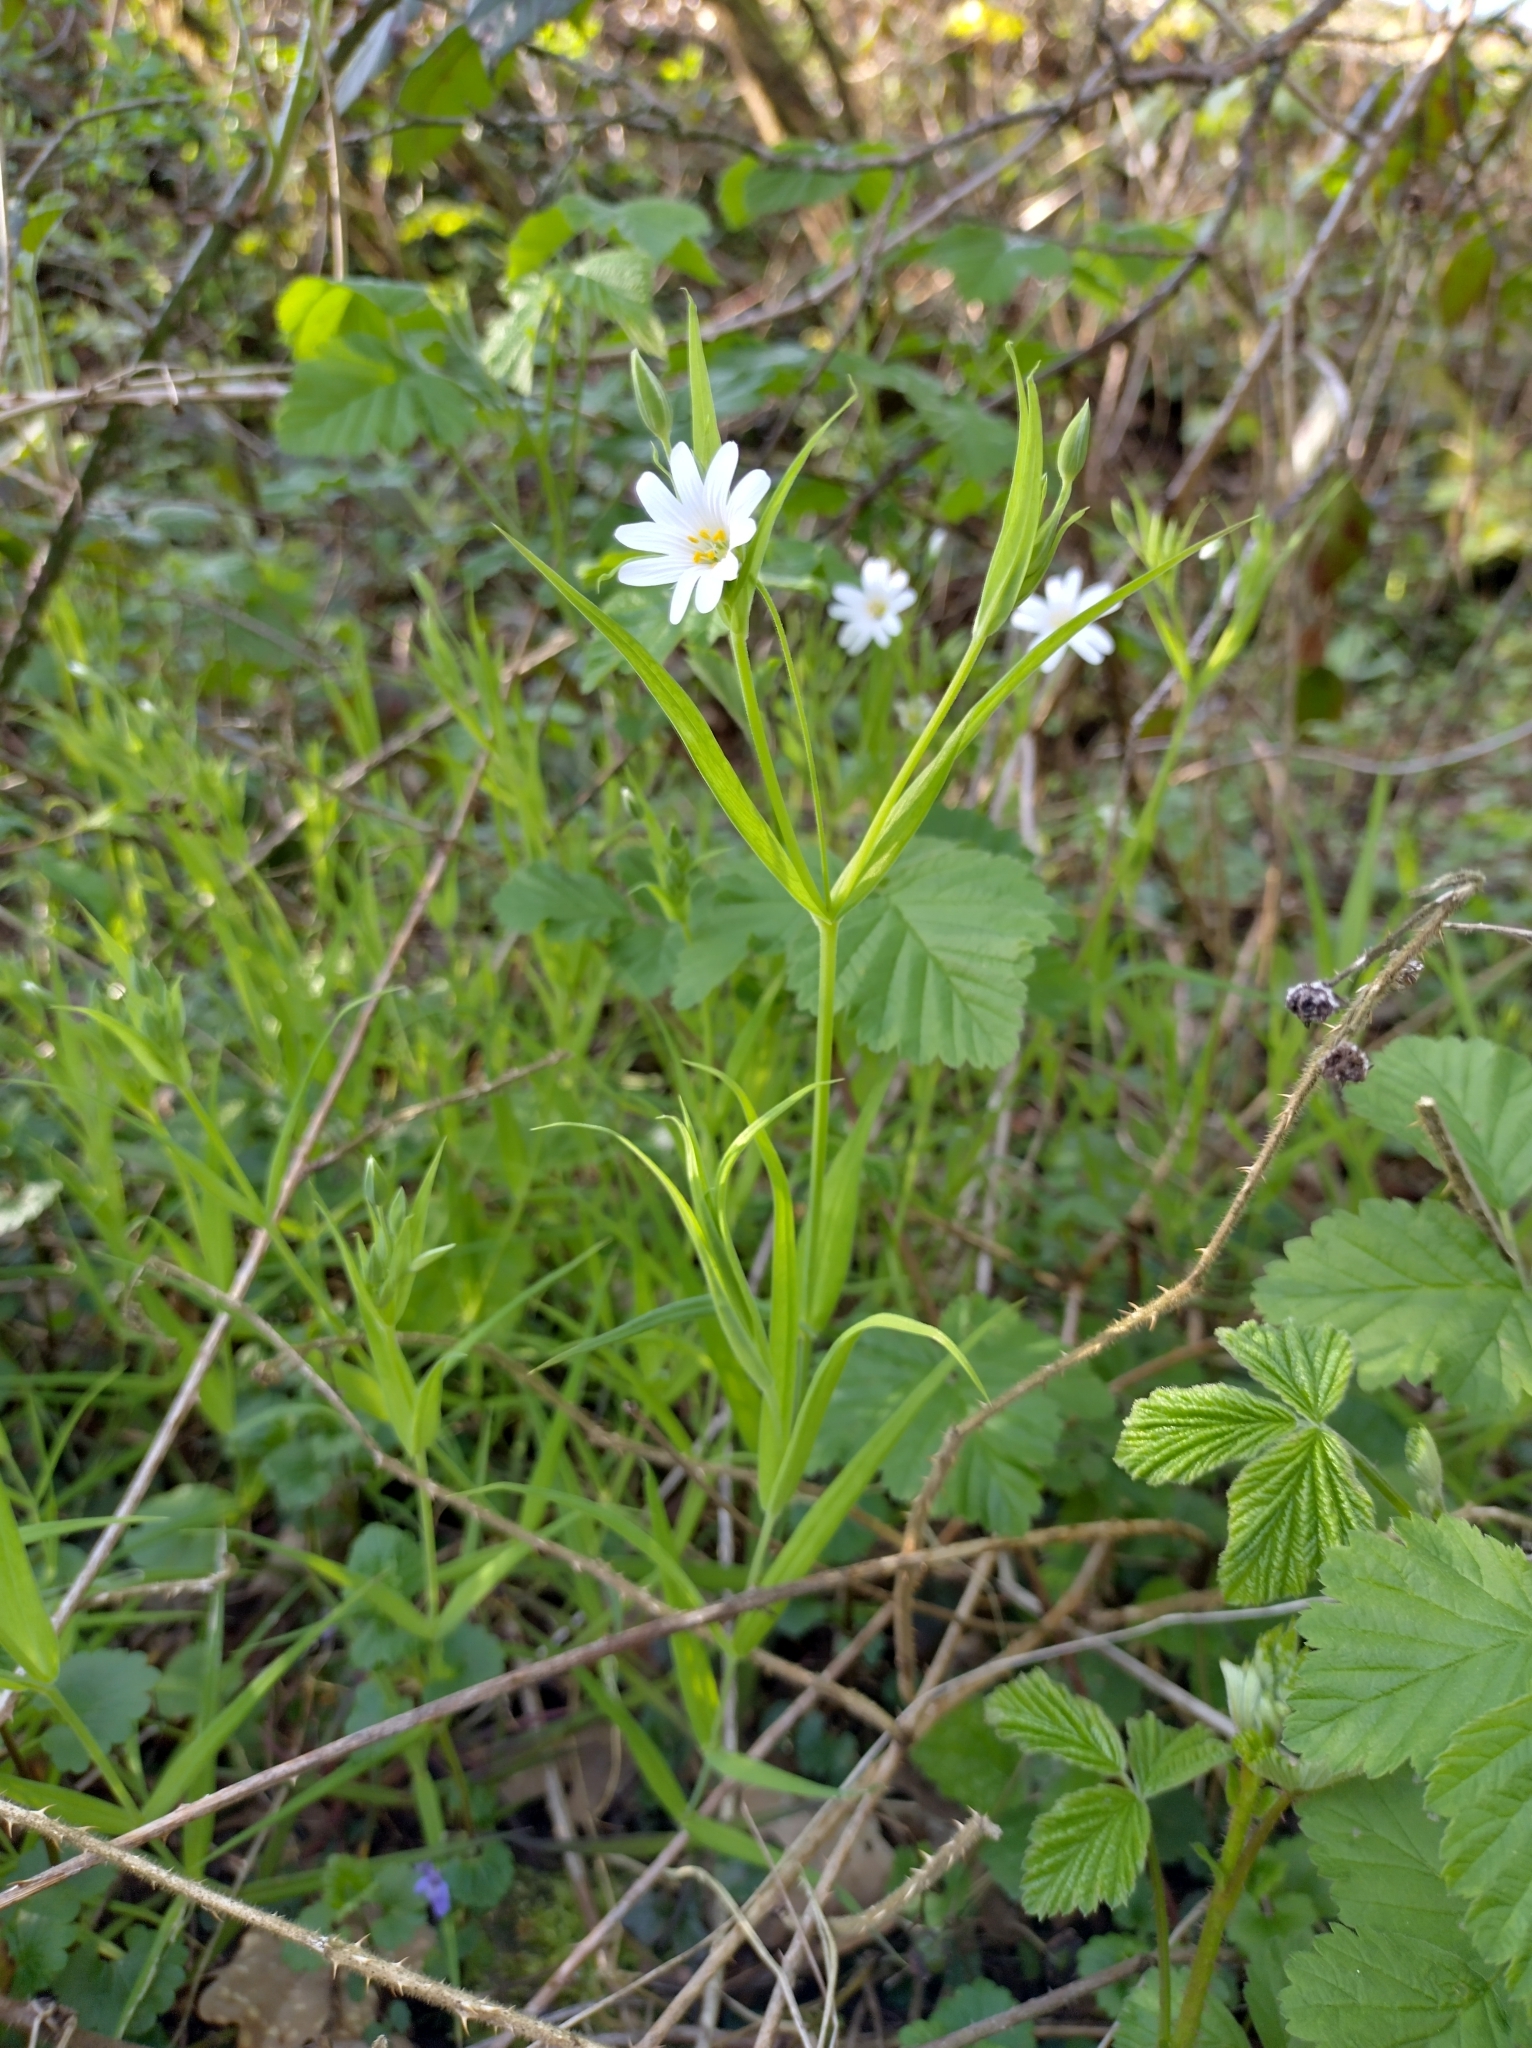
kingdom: Plantae
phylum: Tracheophyta
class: Magnoliopsida
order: Caryophyllales
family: Caryophyllaceae
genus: Rabelera
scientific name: Rabelera holostea
